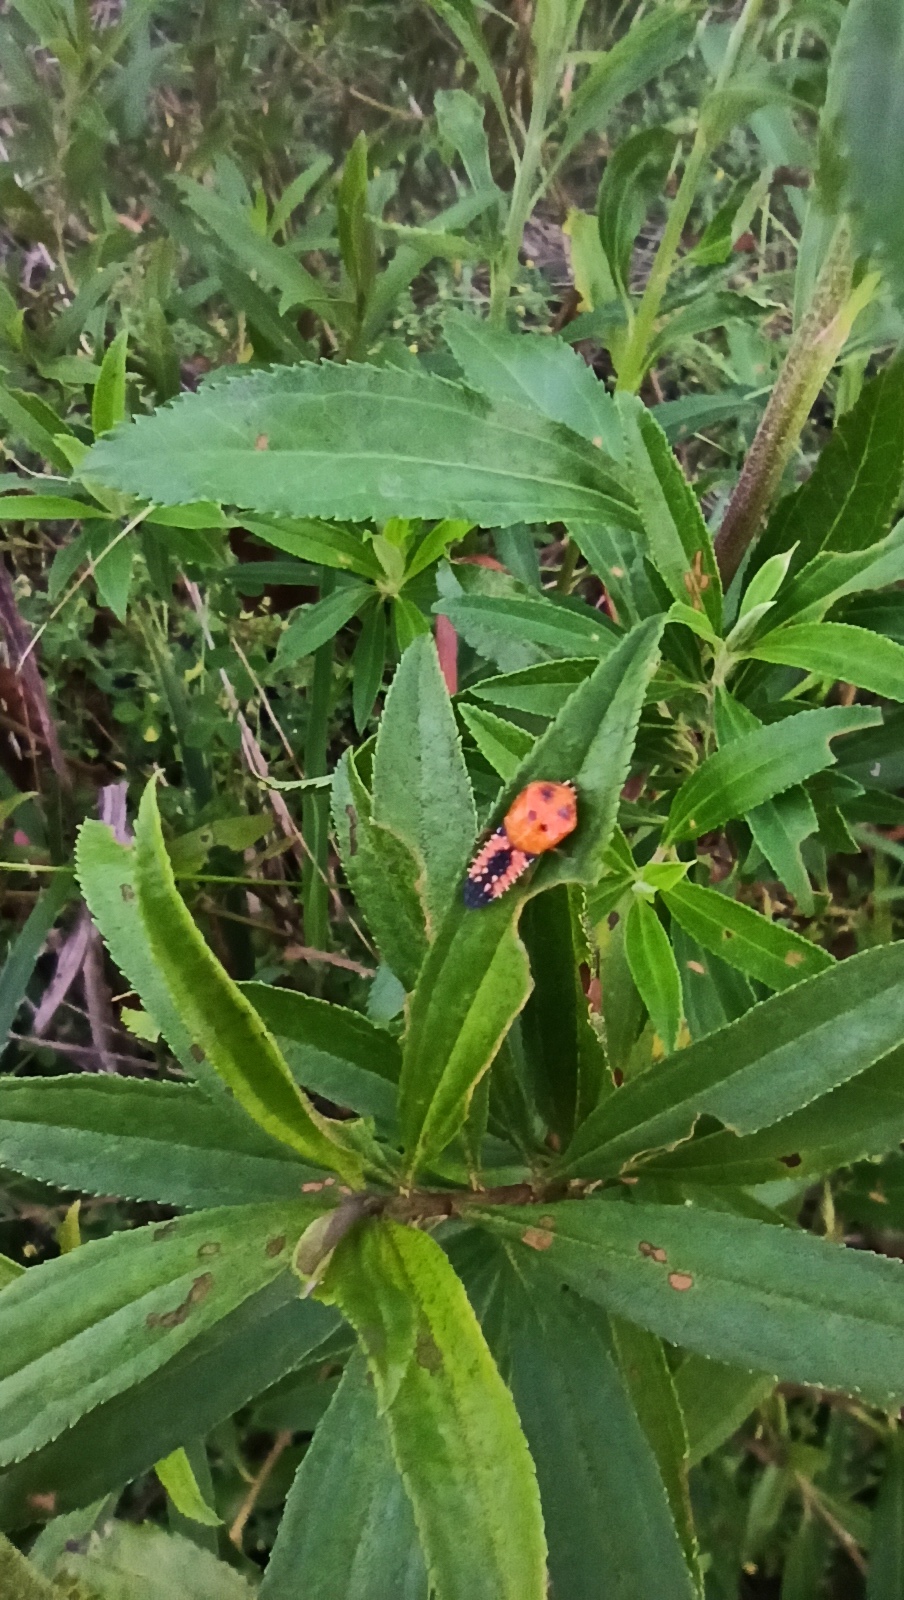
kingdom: Animalia
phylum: Arthropoda
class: Insecta
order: Coleoptera
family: Coccinellidae
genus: Harmonia
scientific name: Harmonia axyridis
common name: Harlequin ladybird
